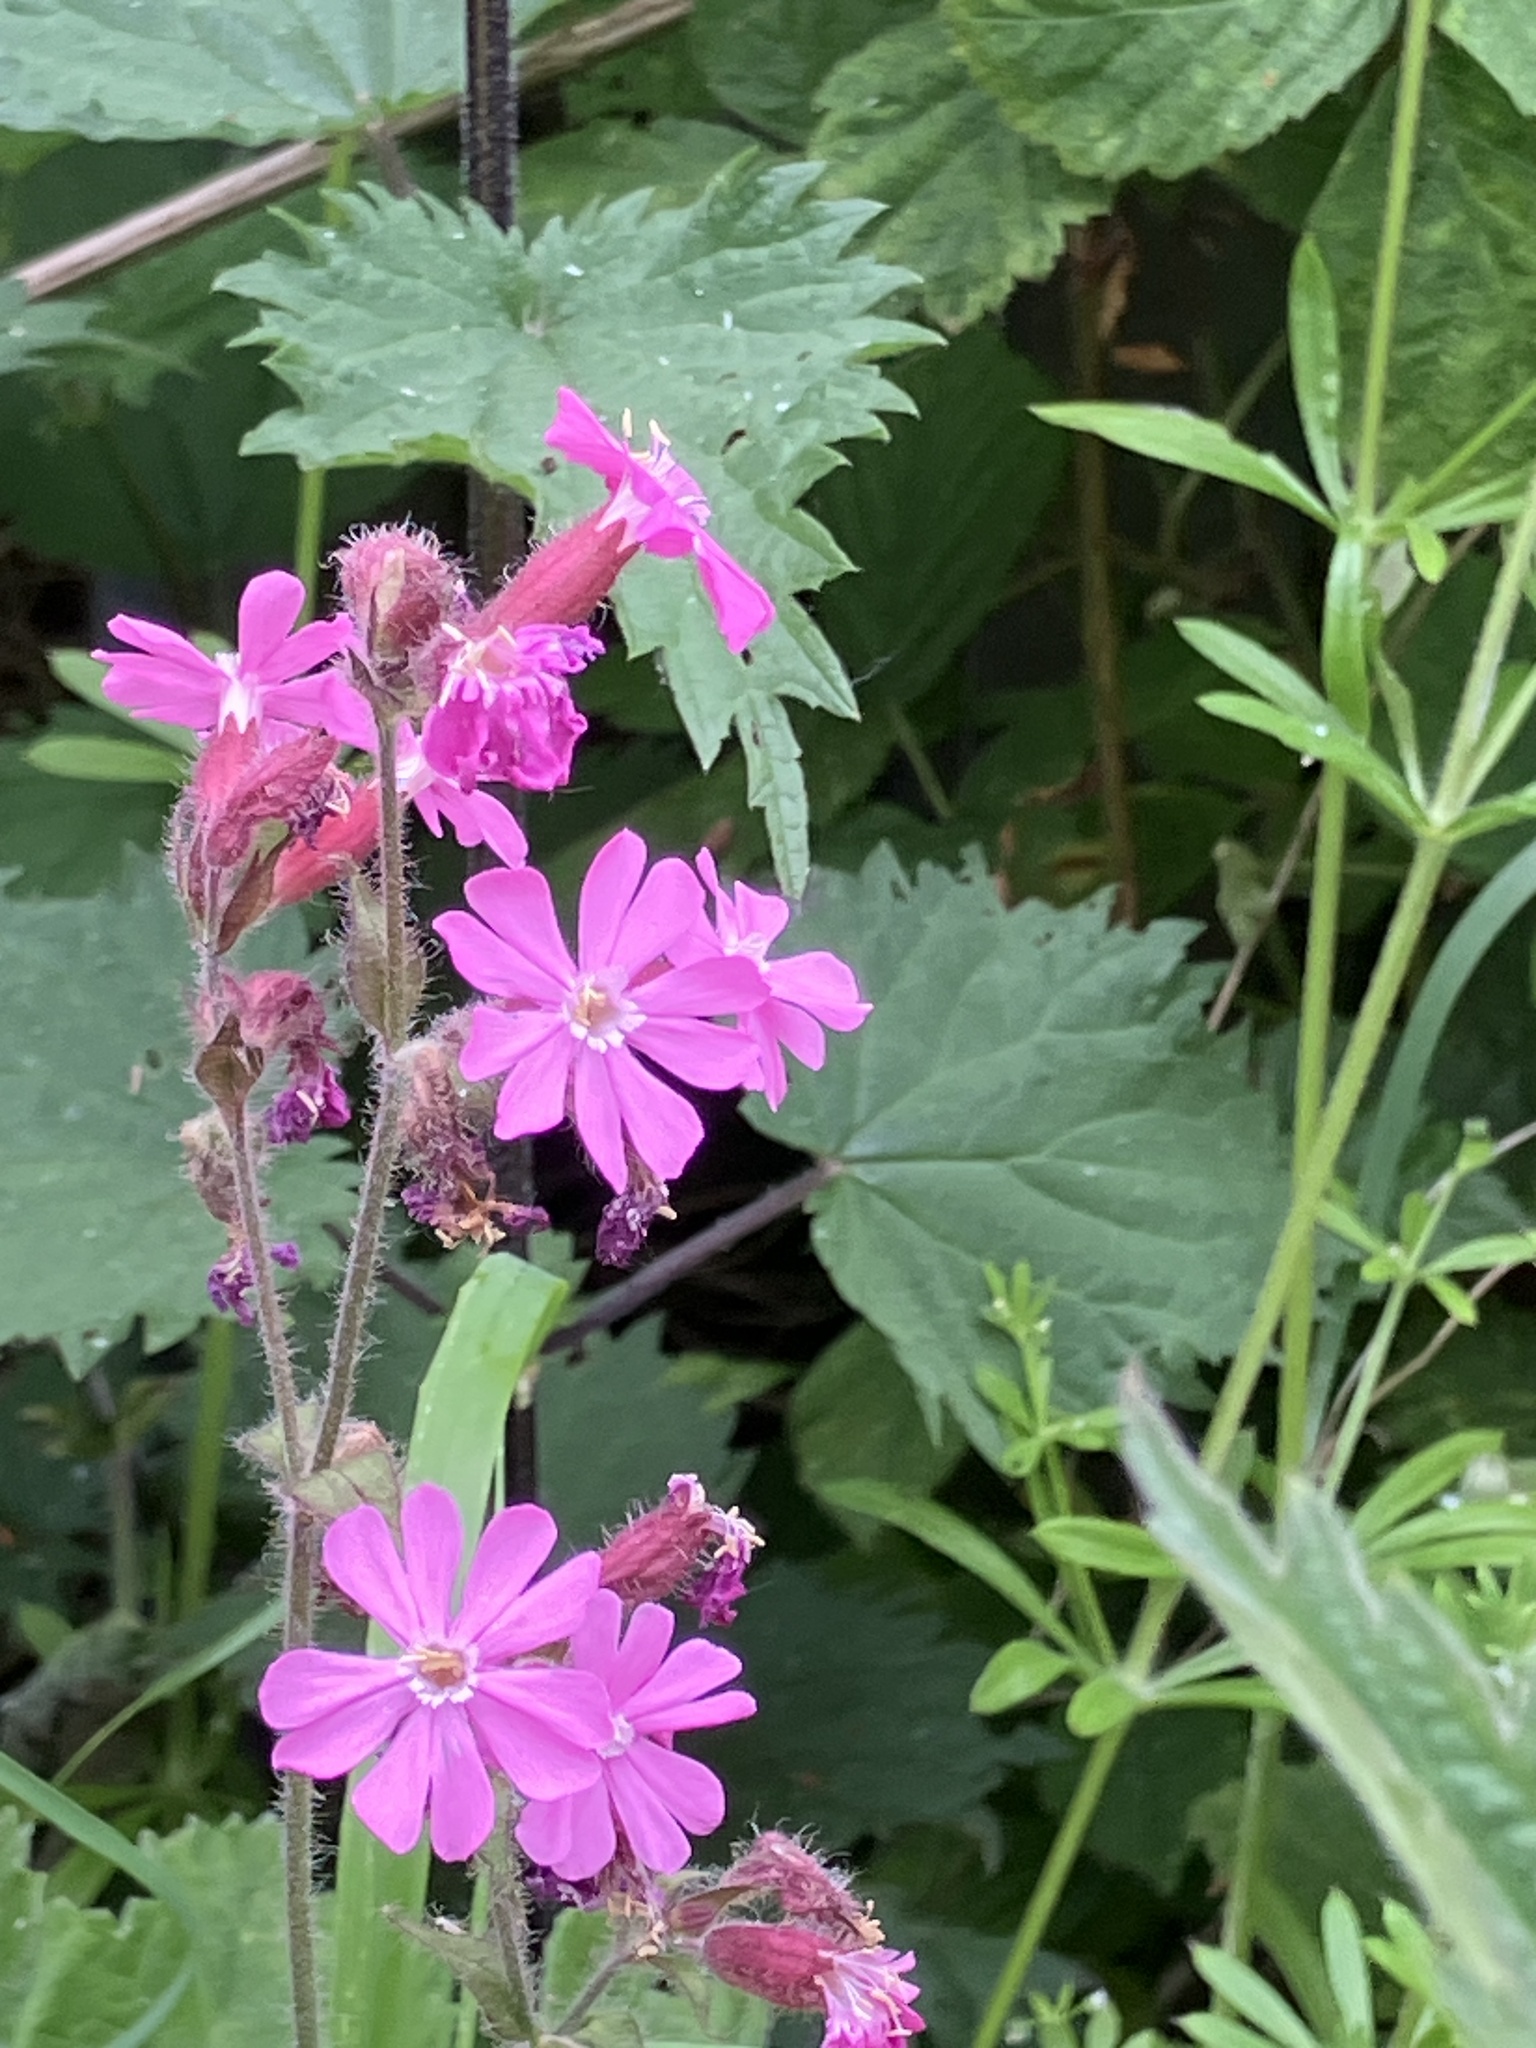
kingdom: Plantae
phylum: Tracheophyta
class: Magnoliopsida
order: Caryophyllales
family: Caryophyllaceae
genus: Silene
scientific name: Silene dioica
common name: Red campion
